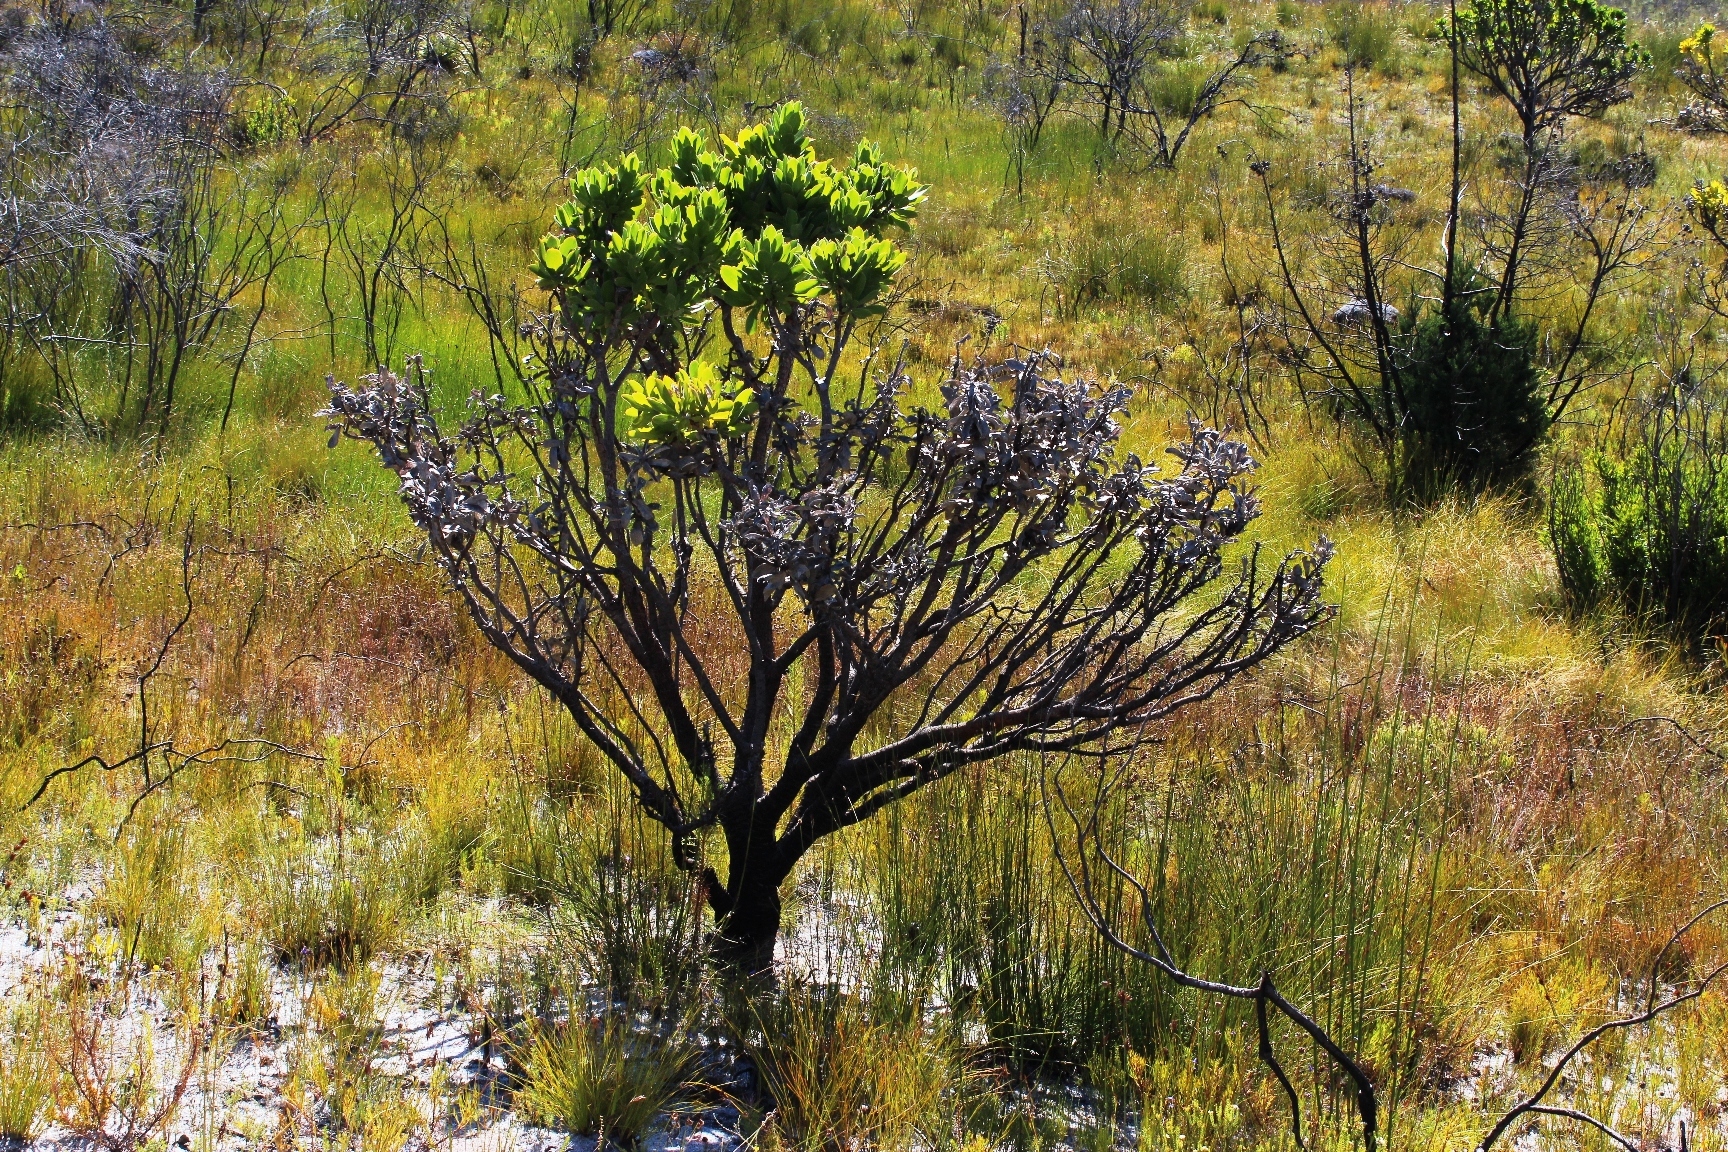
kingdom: Plantae
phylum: Tracheophyta
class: Magnoliopsida
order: Proteales
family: Proteaceae
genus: Leucospermum
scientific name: Leucospermum conocarpodendron
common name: Tree pincushion
